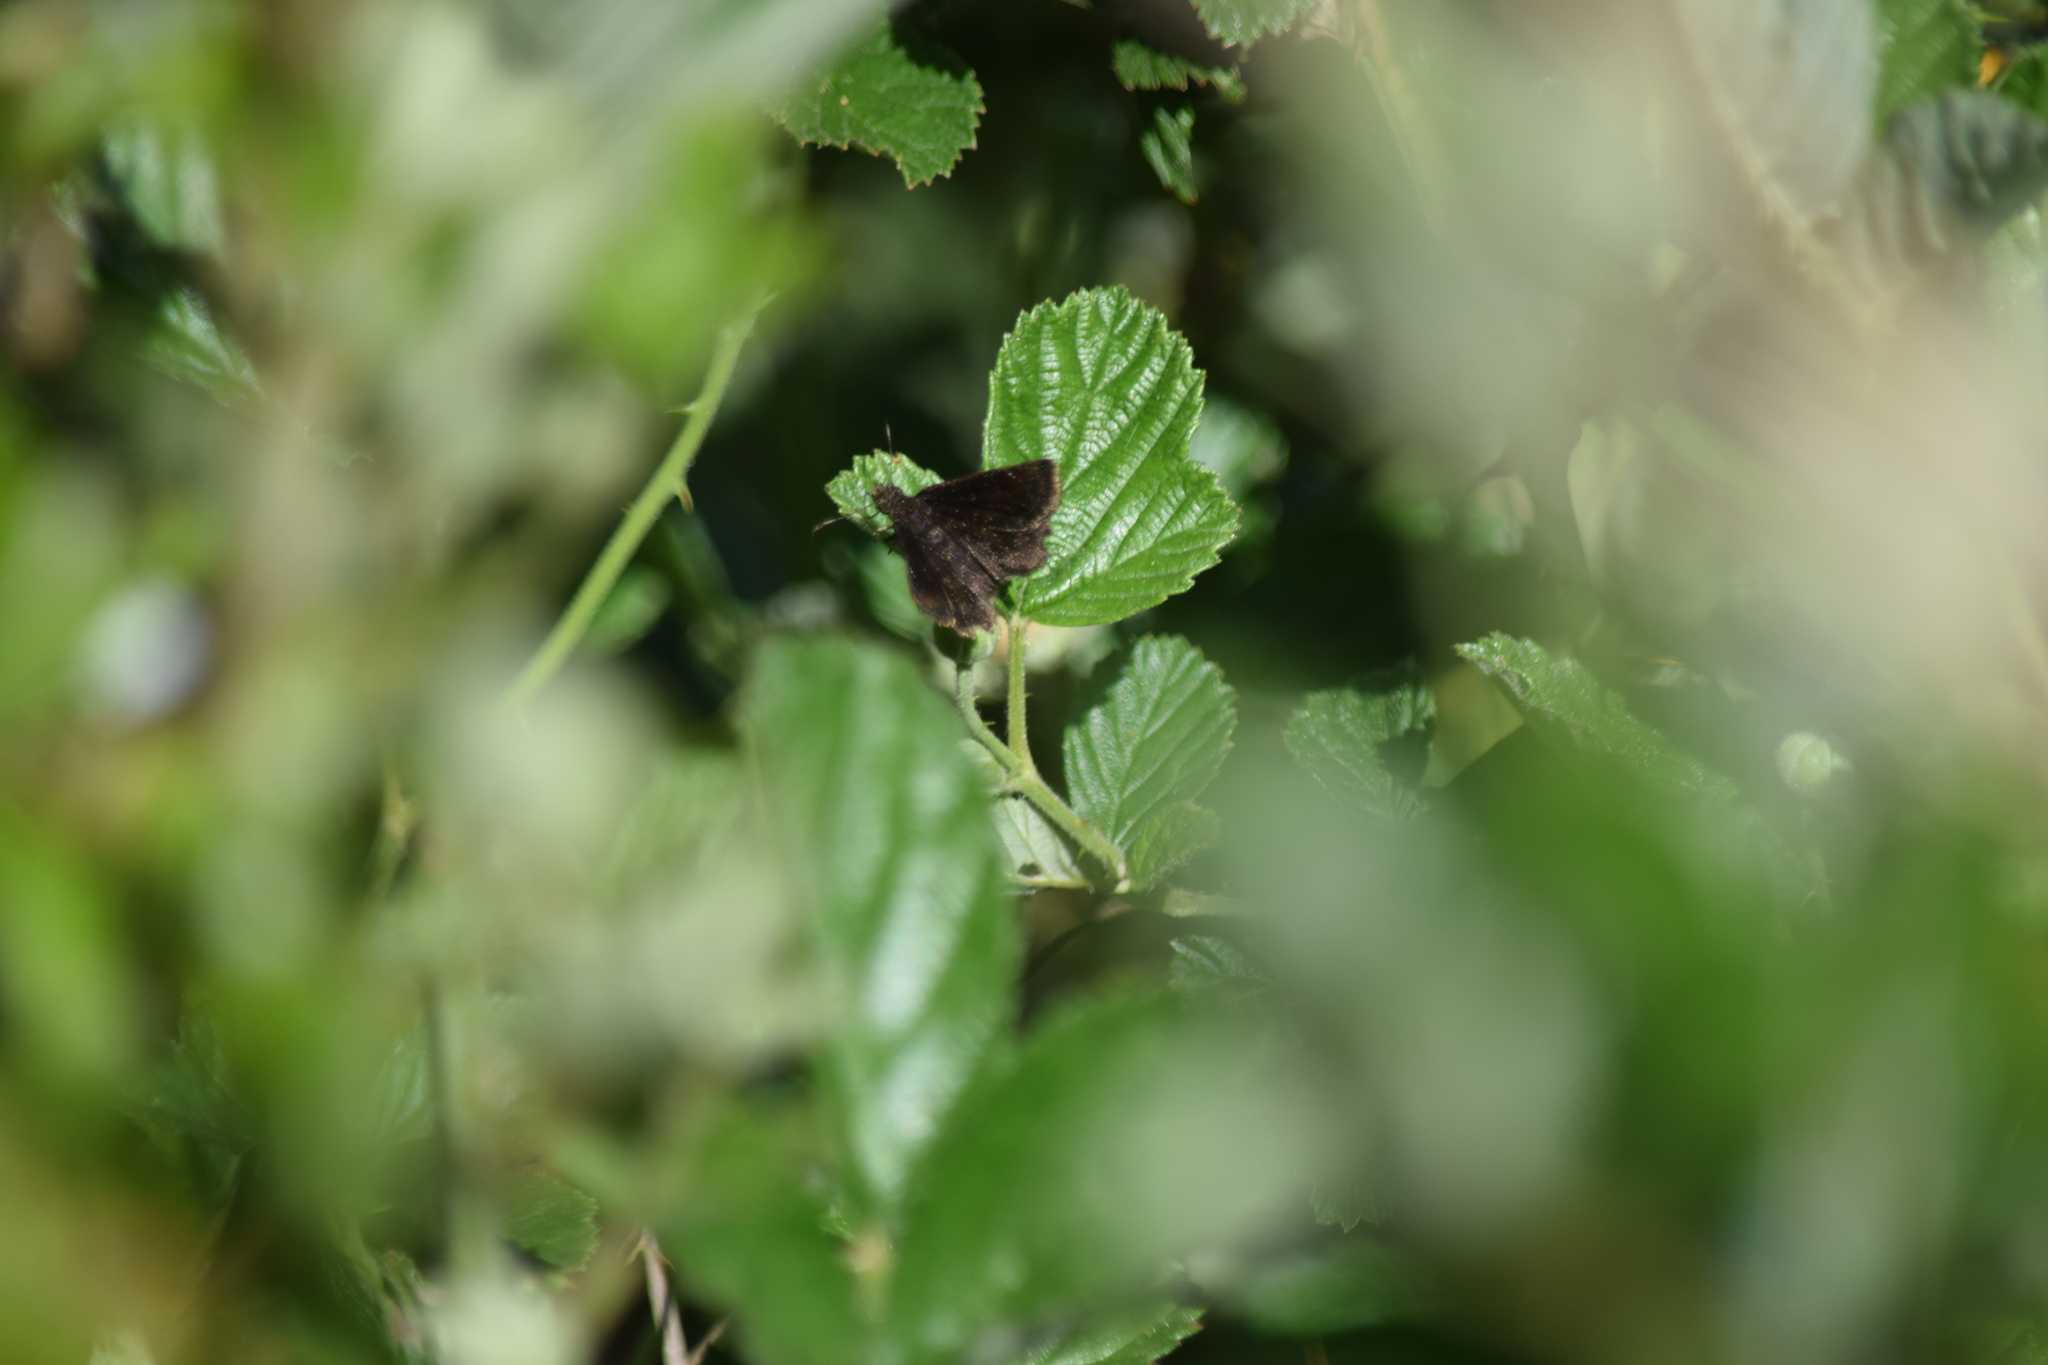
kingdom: Animalia
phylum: Arthropoda
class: Insecta
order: Lepidoptera
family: Hesperiidae
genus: Staphylus
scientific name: Staphylus mazans
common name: Mazans scallopwing
